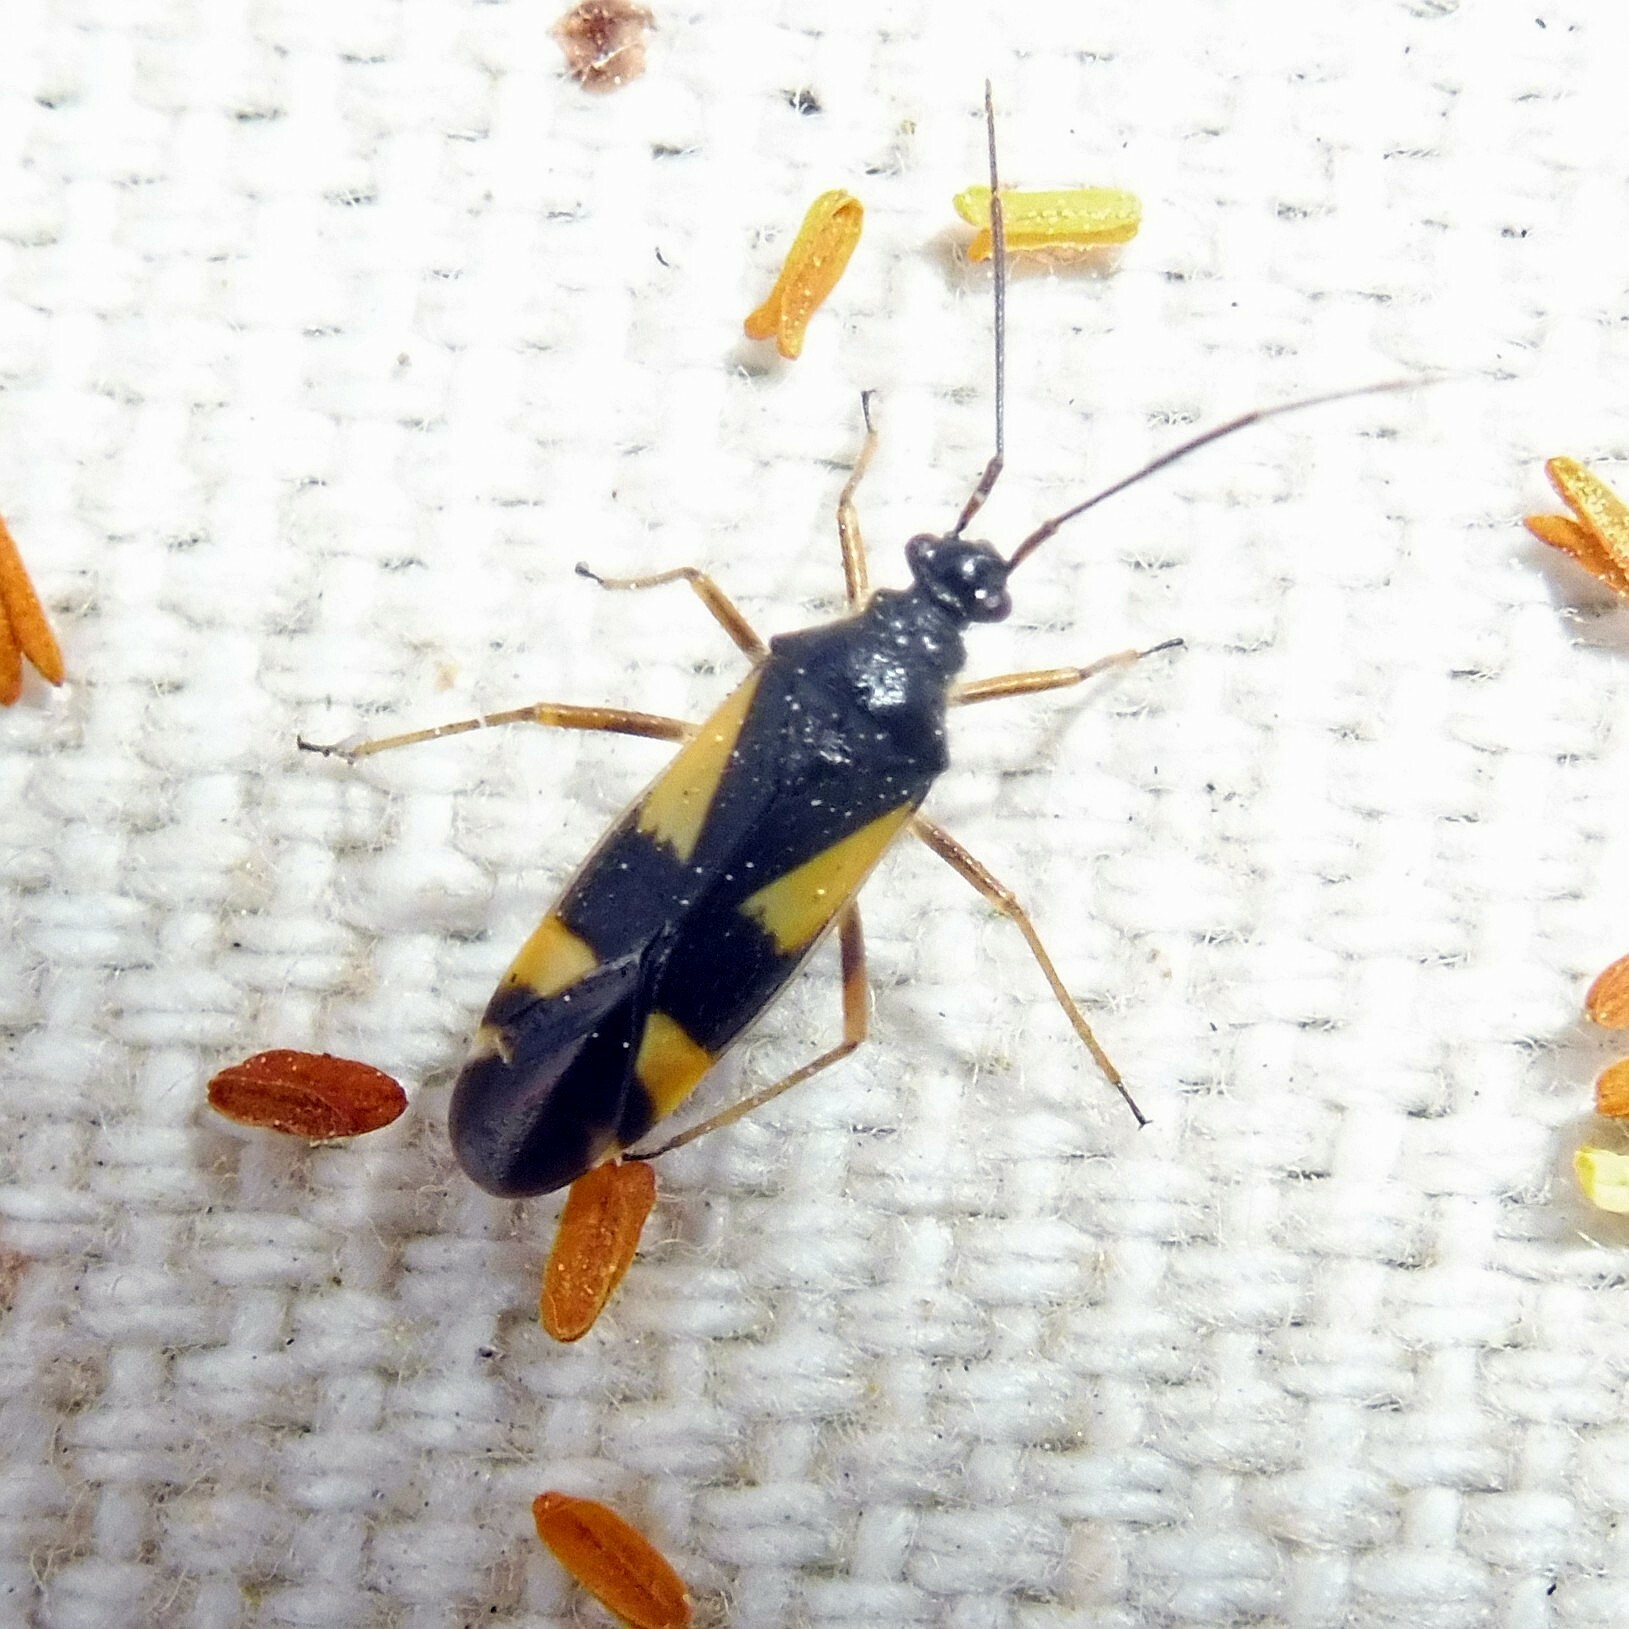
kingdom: Animalia
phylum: Arthropoda
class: Insecta
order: Hemiptera
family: Miridae
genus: Dryophilocoris
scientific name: Dryophilocoris flavoquadrimaculatus
